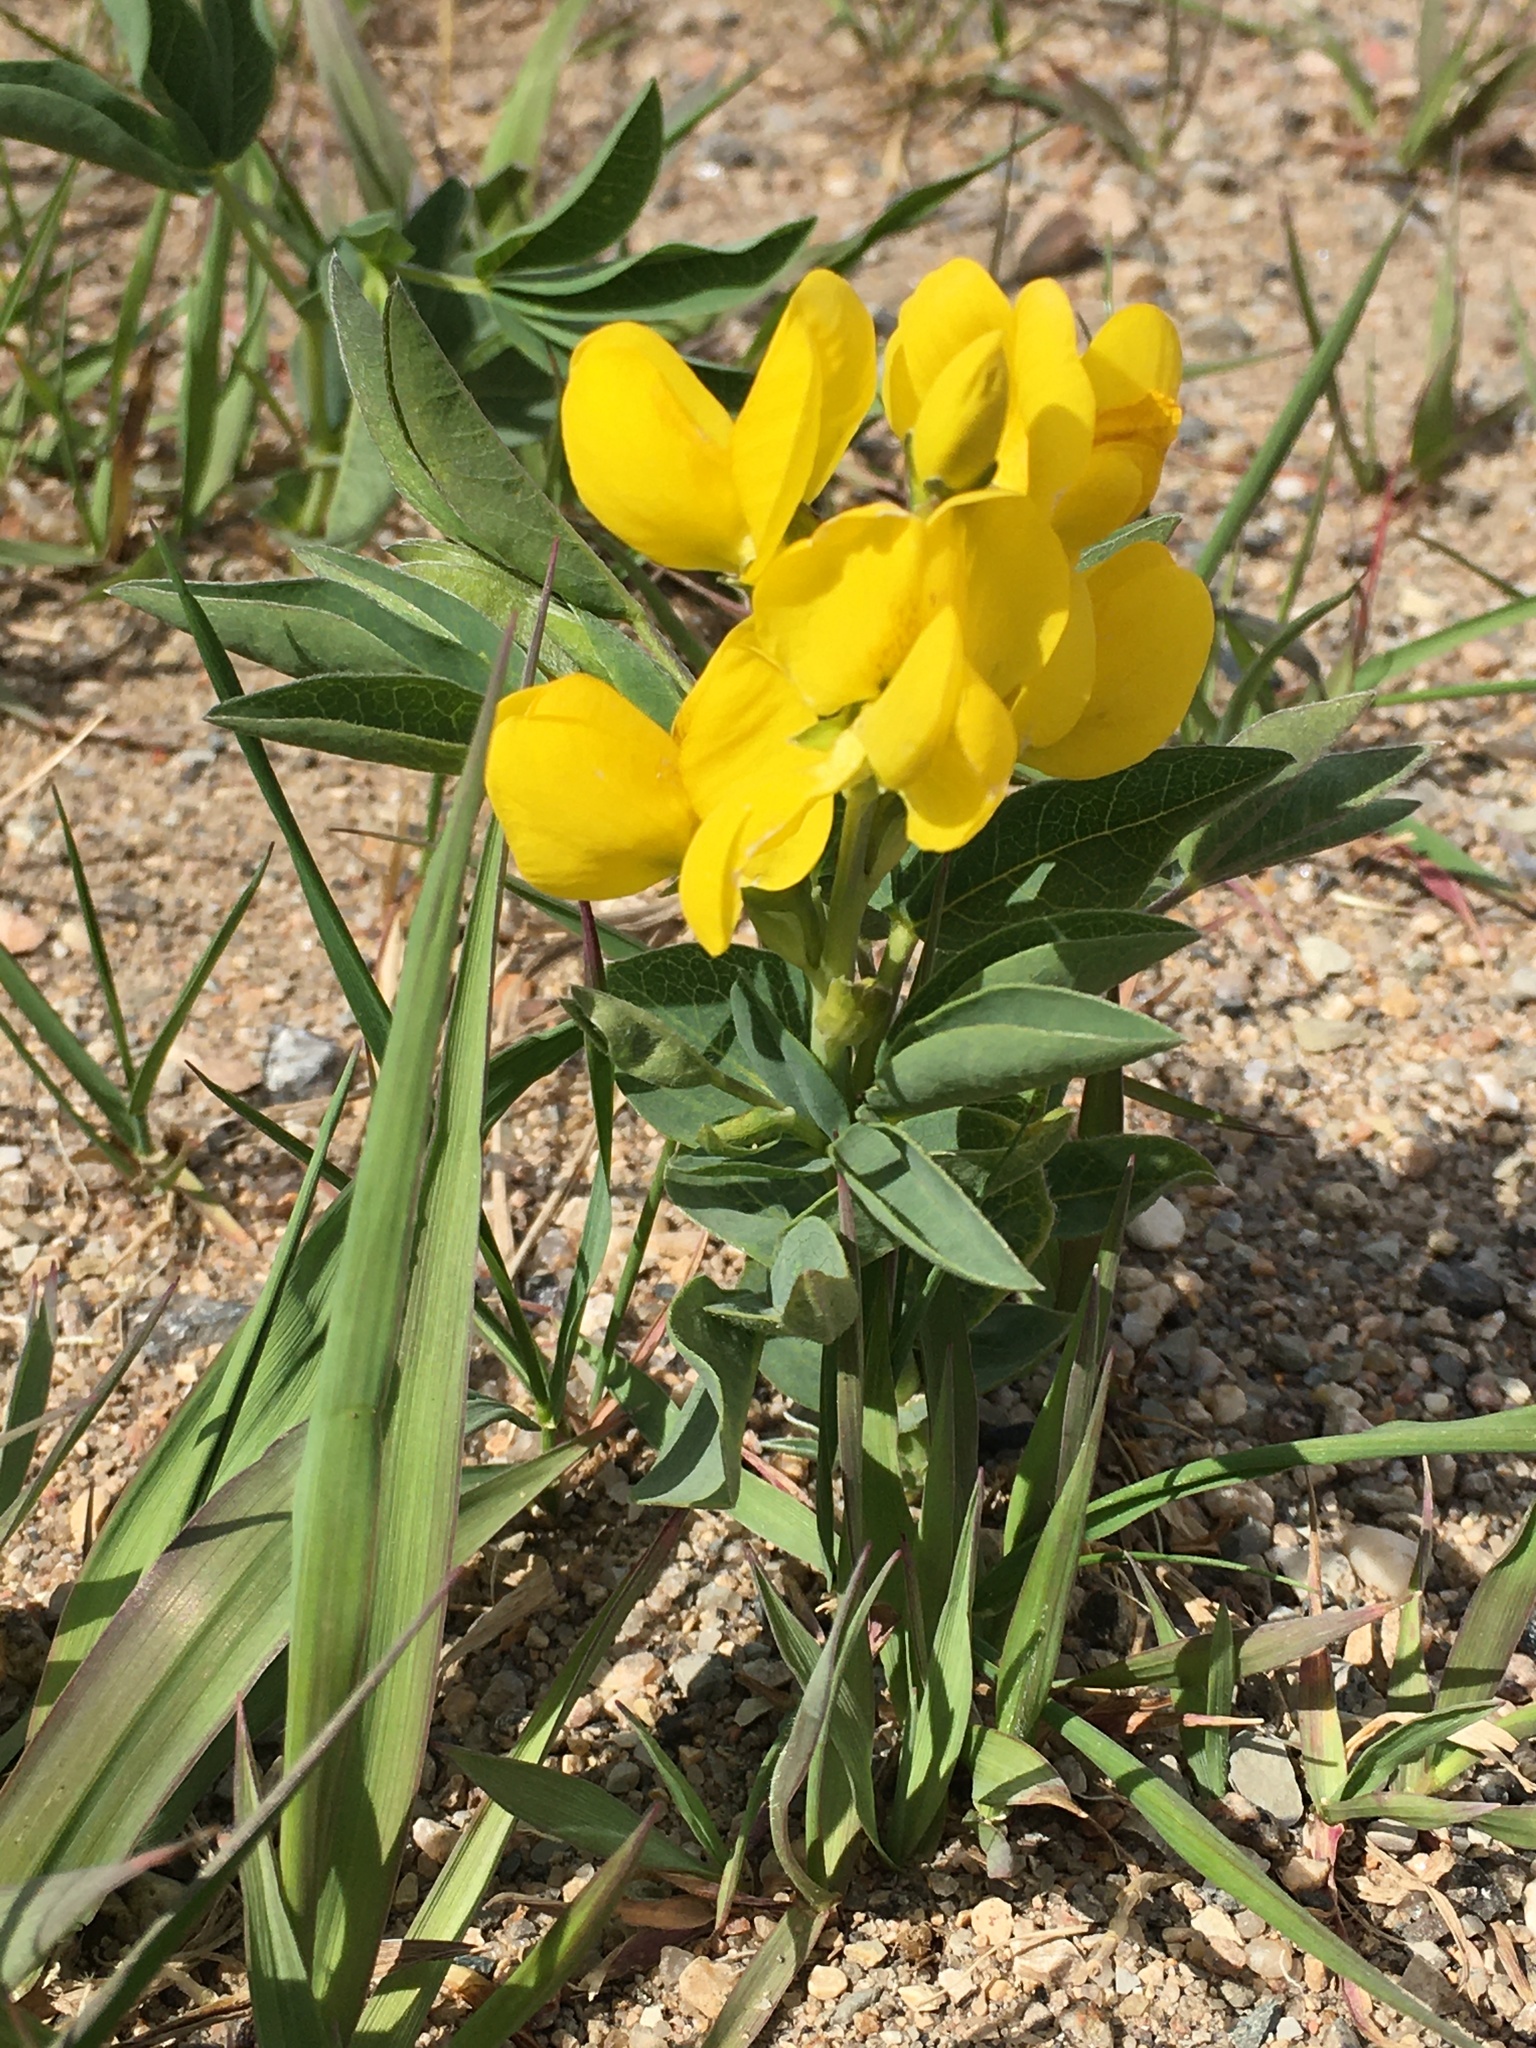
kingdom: Plantae
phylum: Tracheophyta
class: Magnoliopsida
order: Fabales
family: Fabaceae
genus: Thermopsis
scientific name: Thermopsis rhombifolia
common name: Circle-pod-pea
